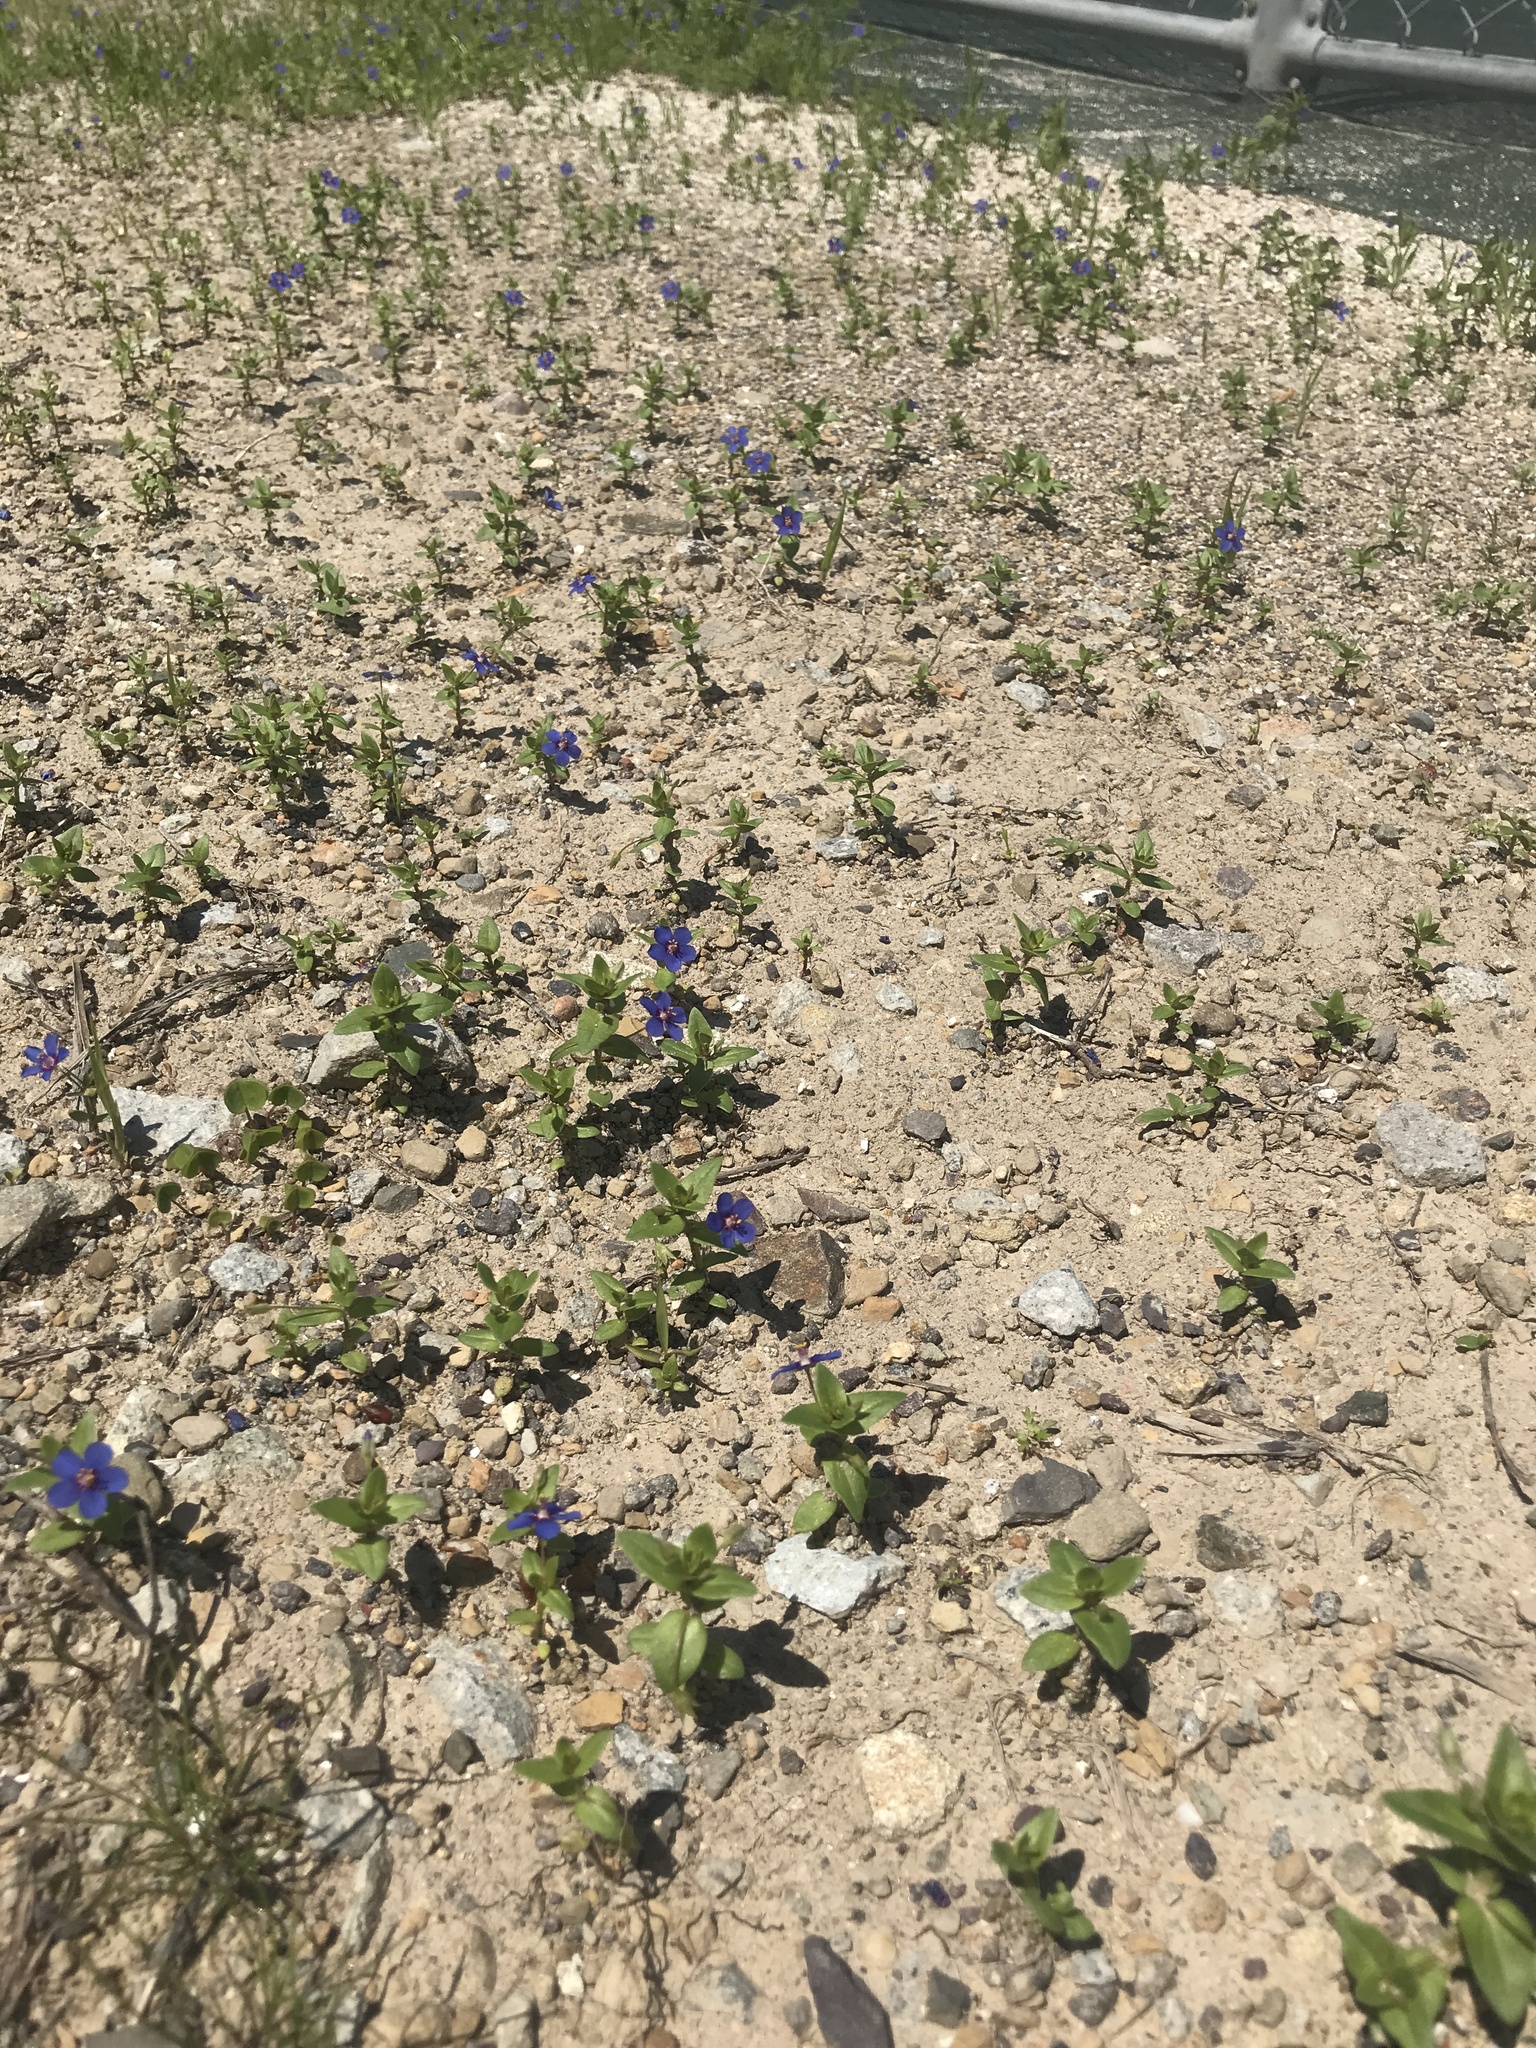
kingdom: Plantae
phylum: Tracheophyta
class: Magnoliopsida
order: Ericales
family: Primulaceae
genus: Lysimachia
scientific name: Lysimachia foemina
